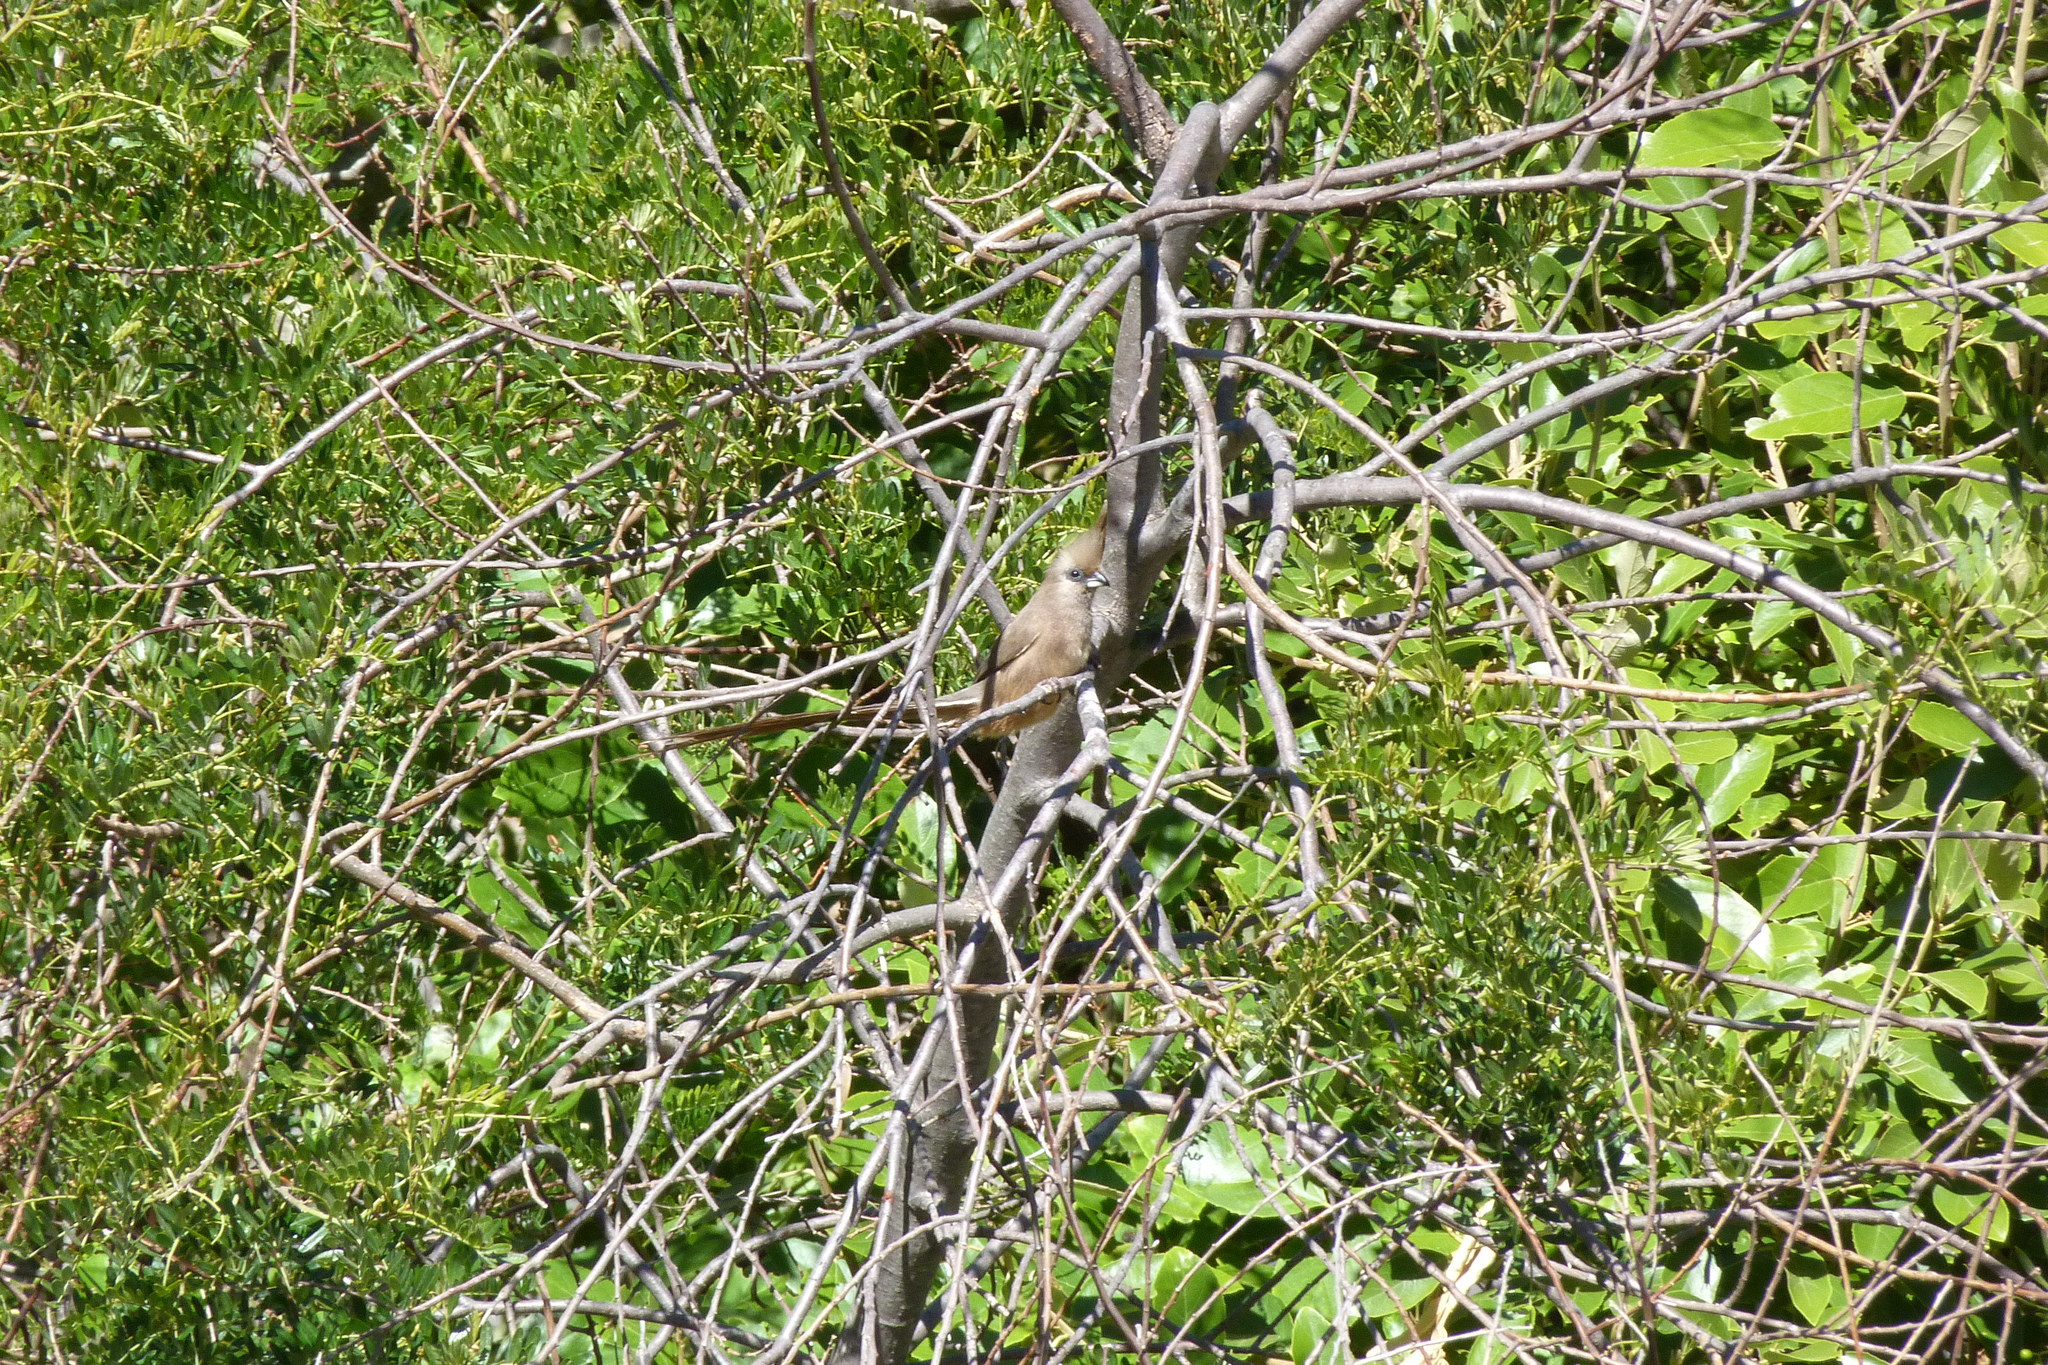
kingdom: Animalia
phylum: Chordata
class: Aves
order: Coliiformes
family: Coliidae
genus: Colius
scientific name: Colius striatus
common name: Speckled mousebird
